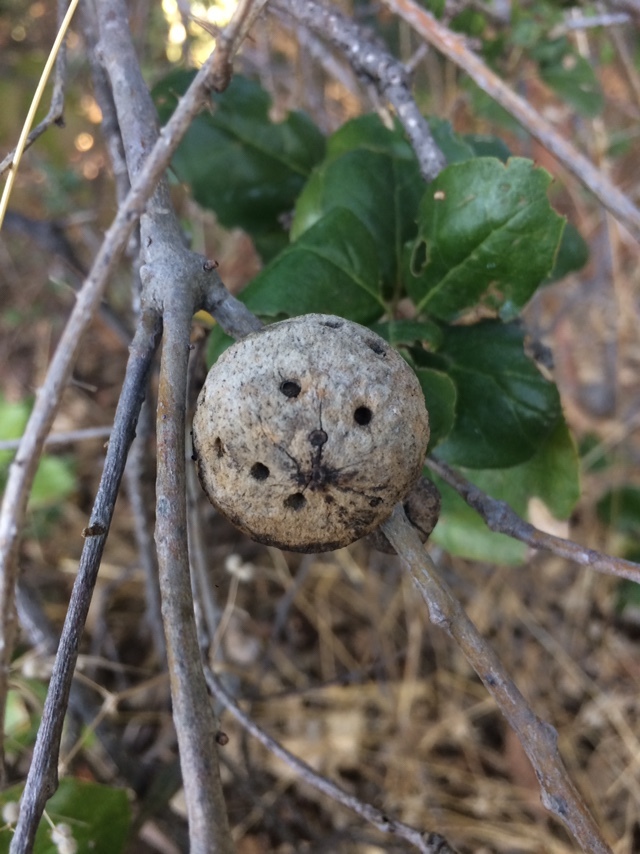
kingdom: Animalia
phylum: Arthropoda
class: Insecta
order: Hymenoptera
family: Cynipidae
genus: Amphibolips
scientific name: Amphibolips quercuspomiformis
